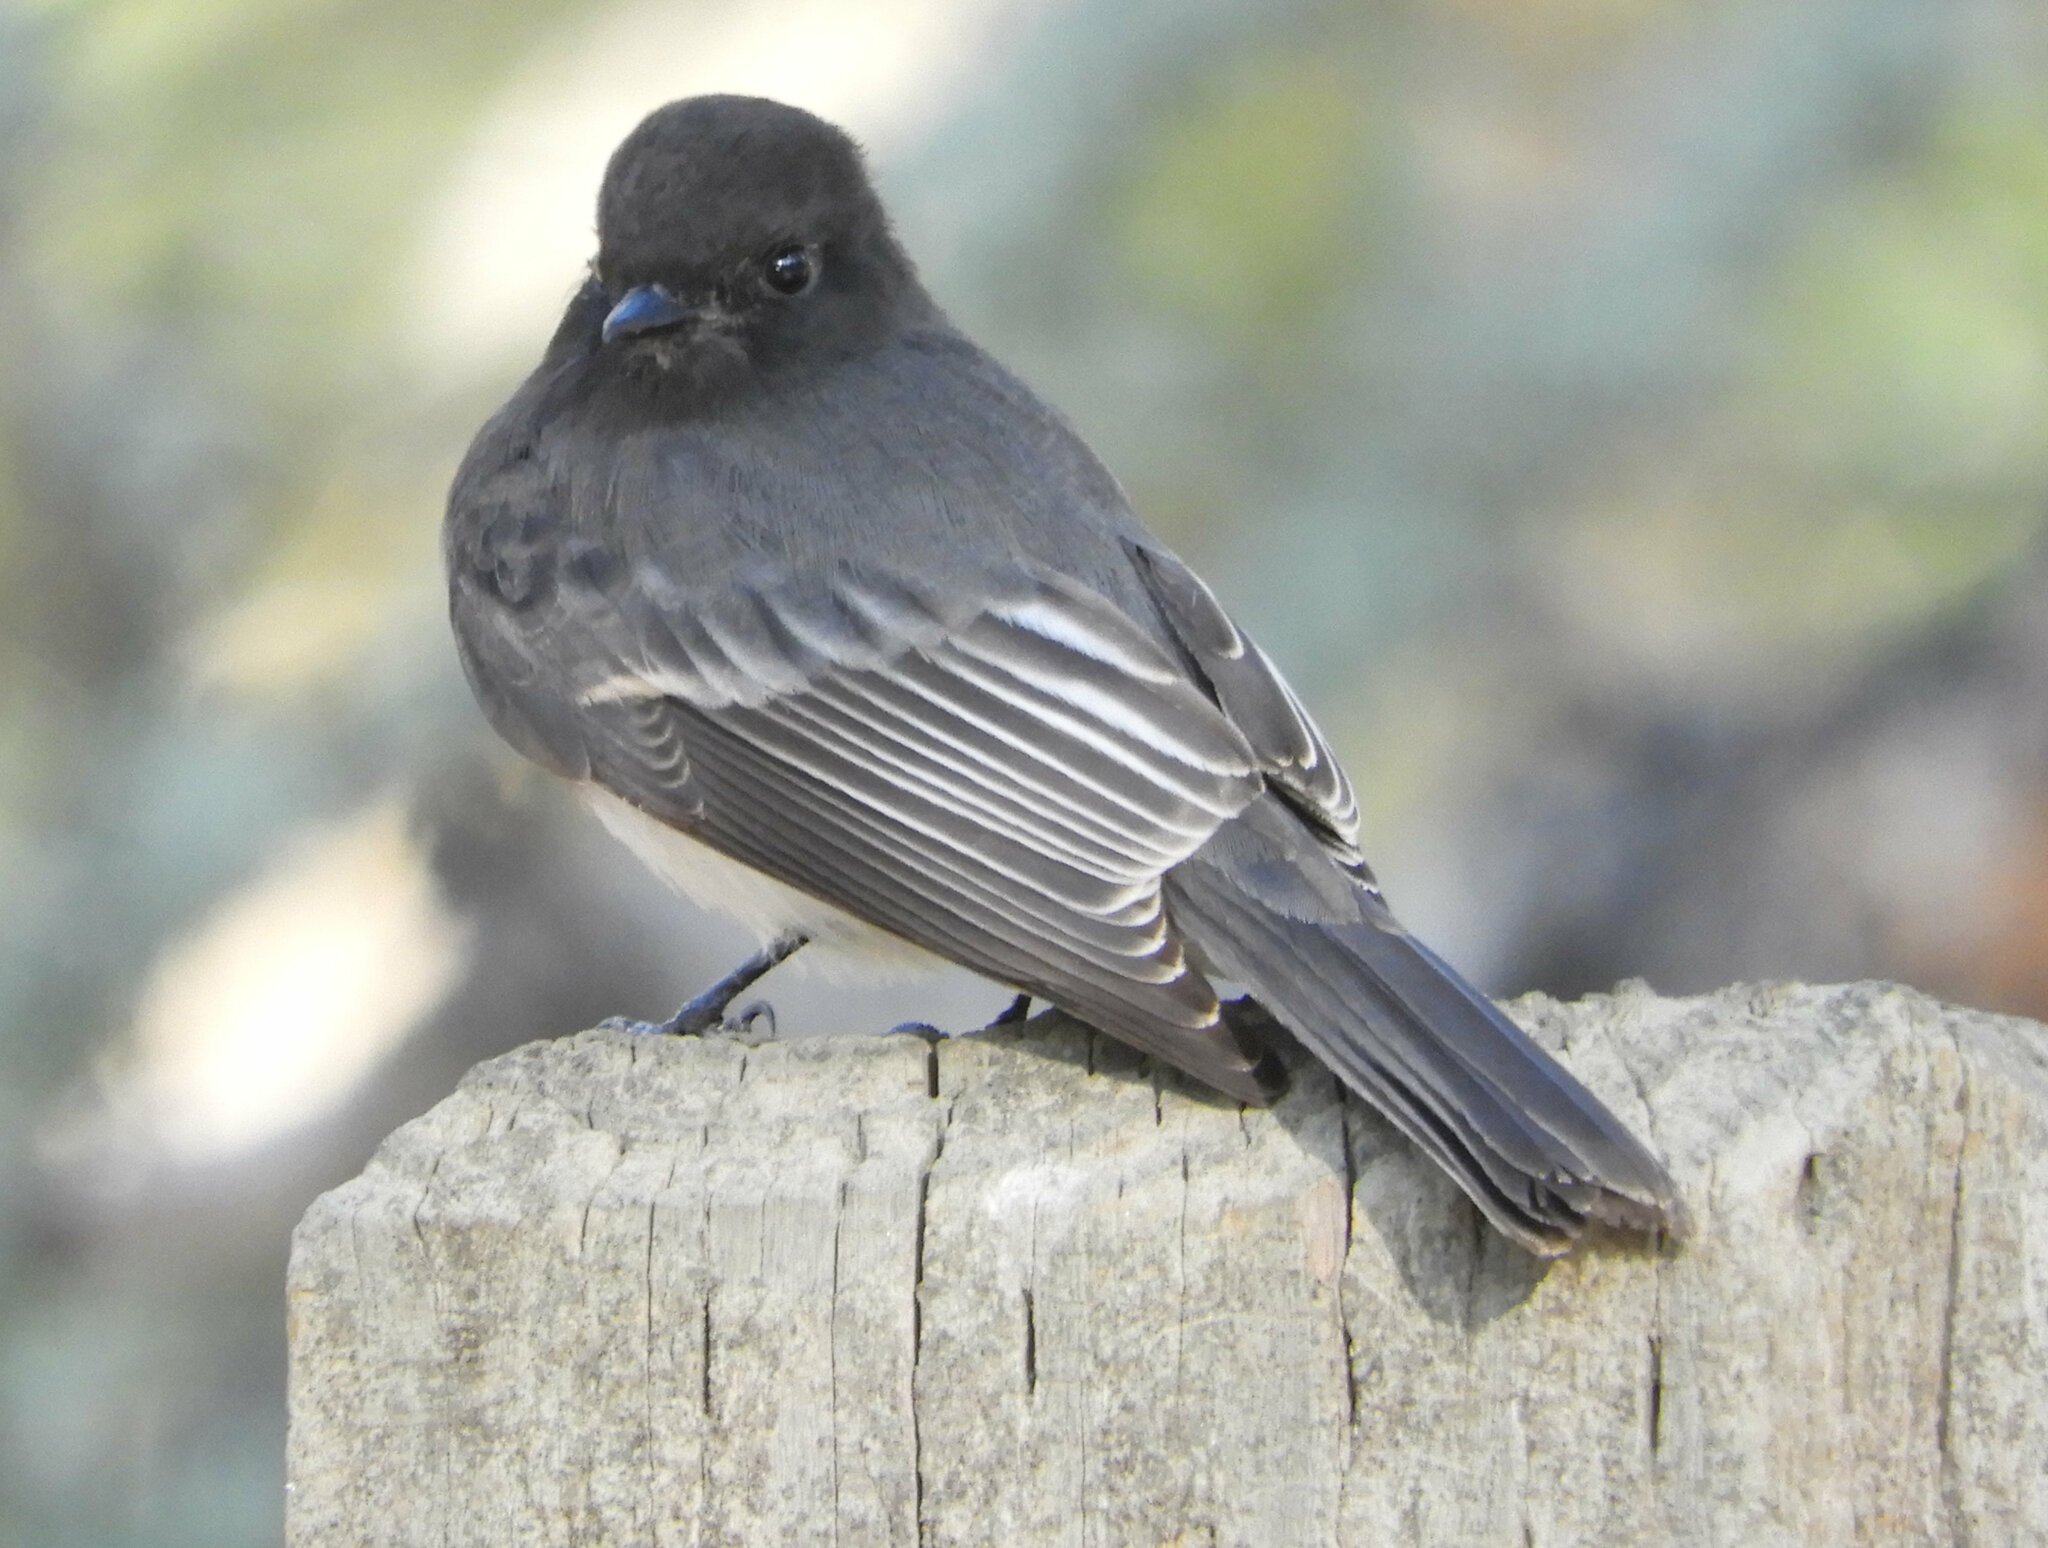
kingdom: Animalia
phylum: Chordata
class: Aves
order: Passeriformes
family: Tyrannidae
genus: Sayornis
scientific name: Sayornis nigricans
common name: Black phoebe
